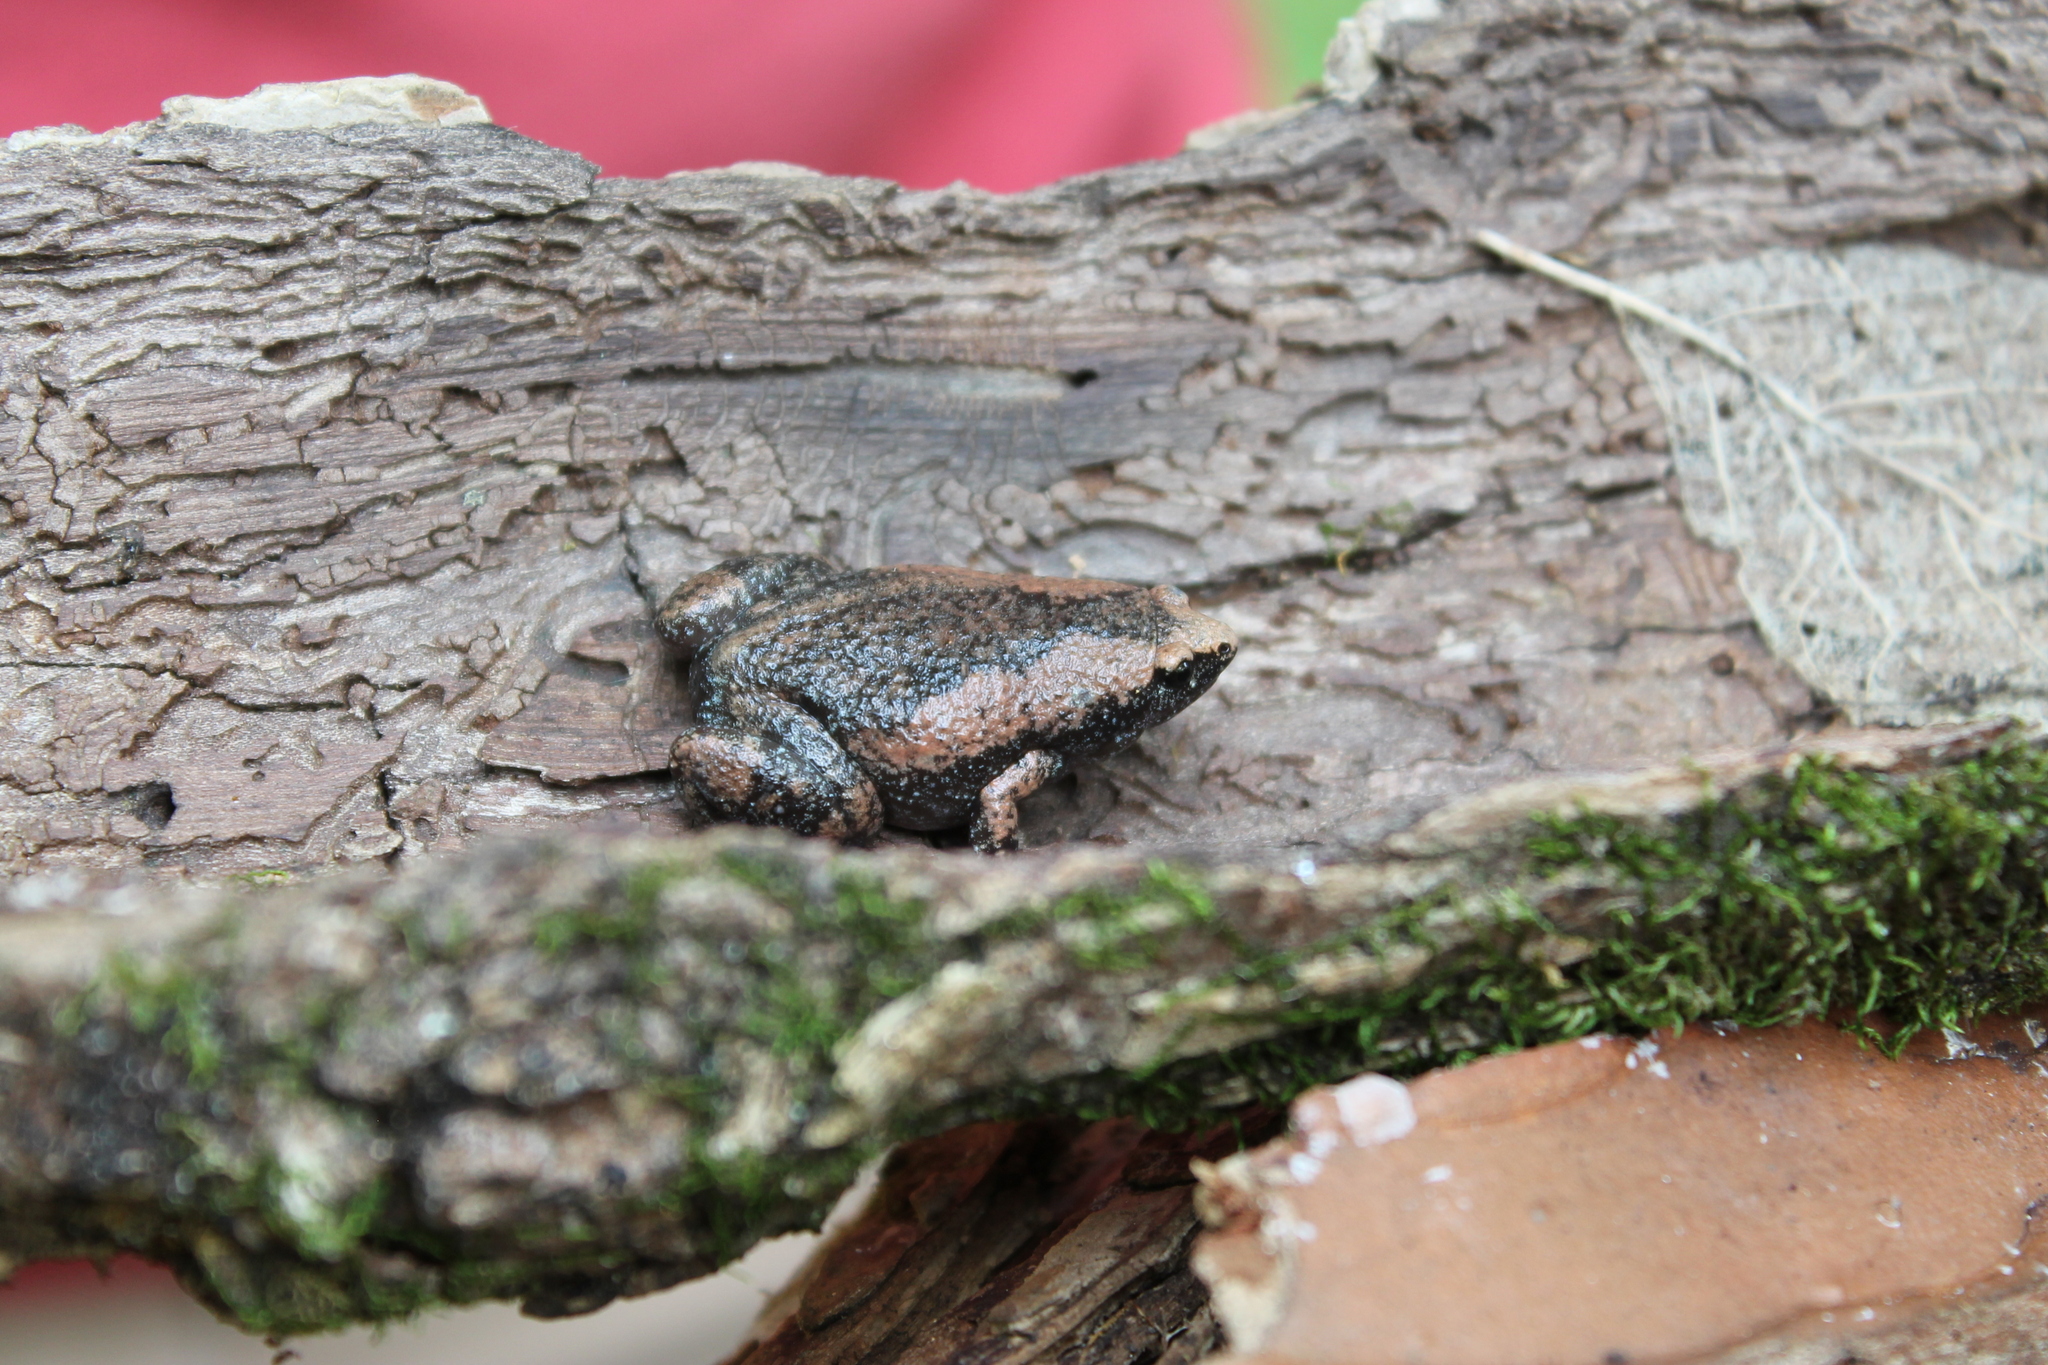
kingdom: Animalia
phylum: Chordata
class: Amphibia
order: Anura
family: Microhylidae
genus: Gastrophryne
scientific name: Gastrophryne carolinensis
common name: Eastern narrowmouth toad
